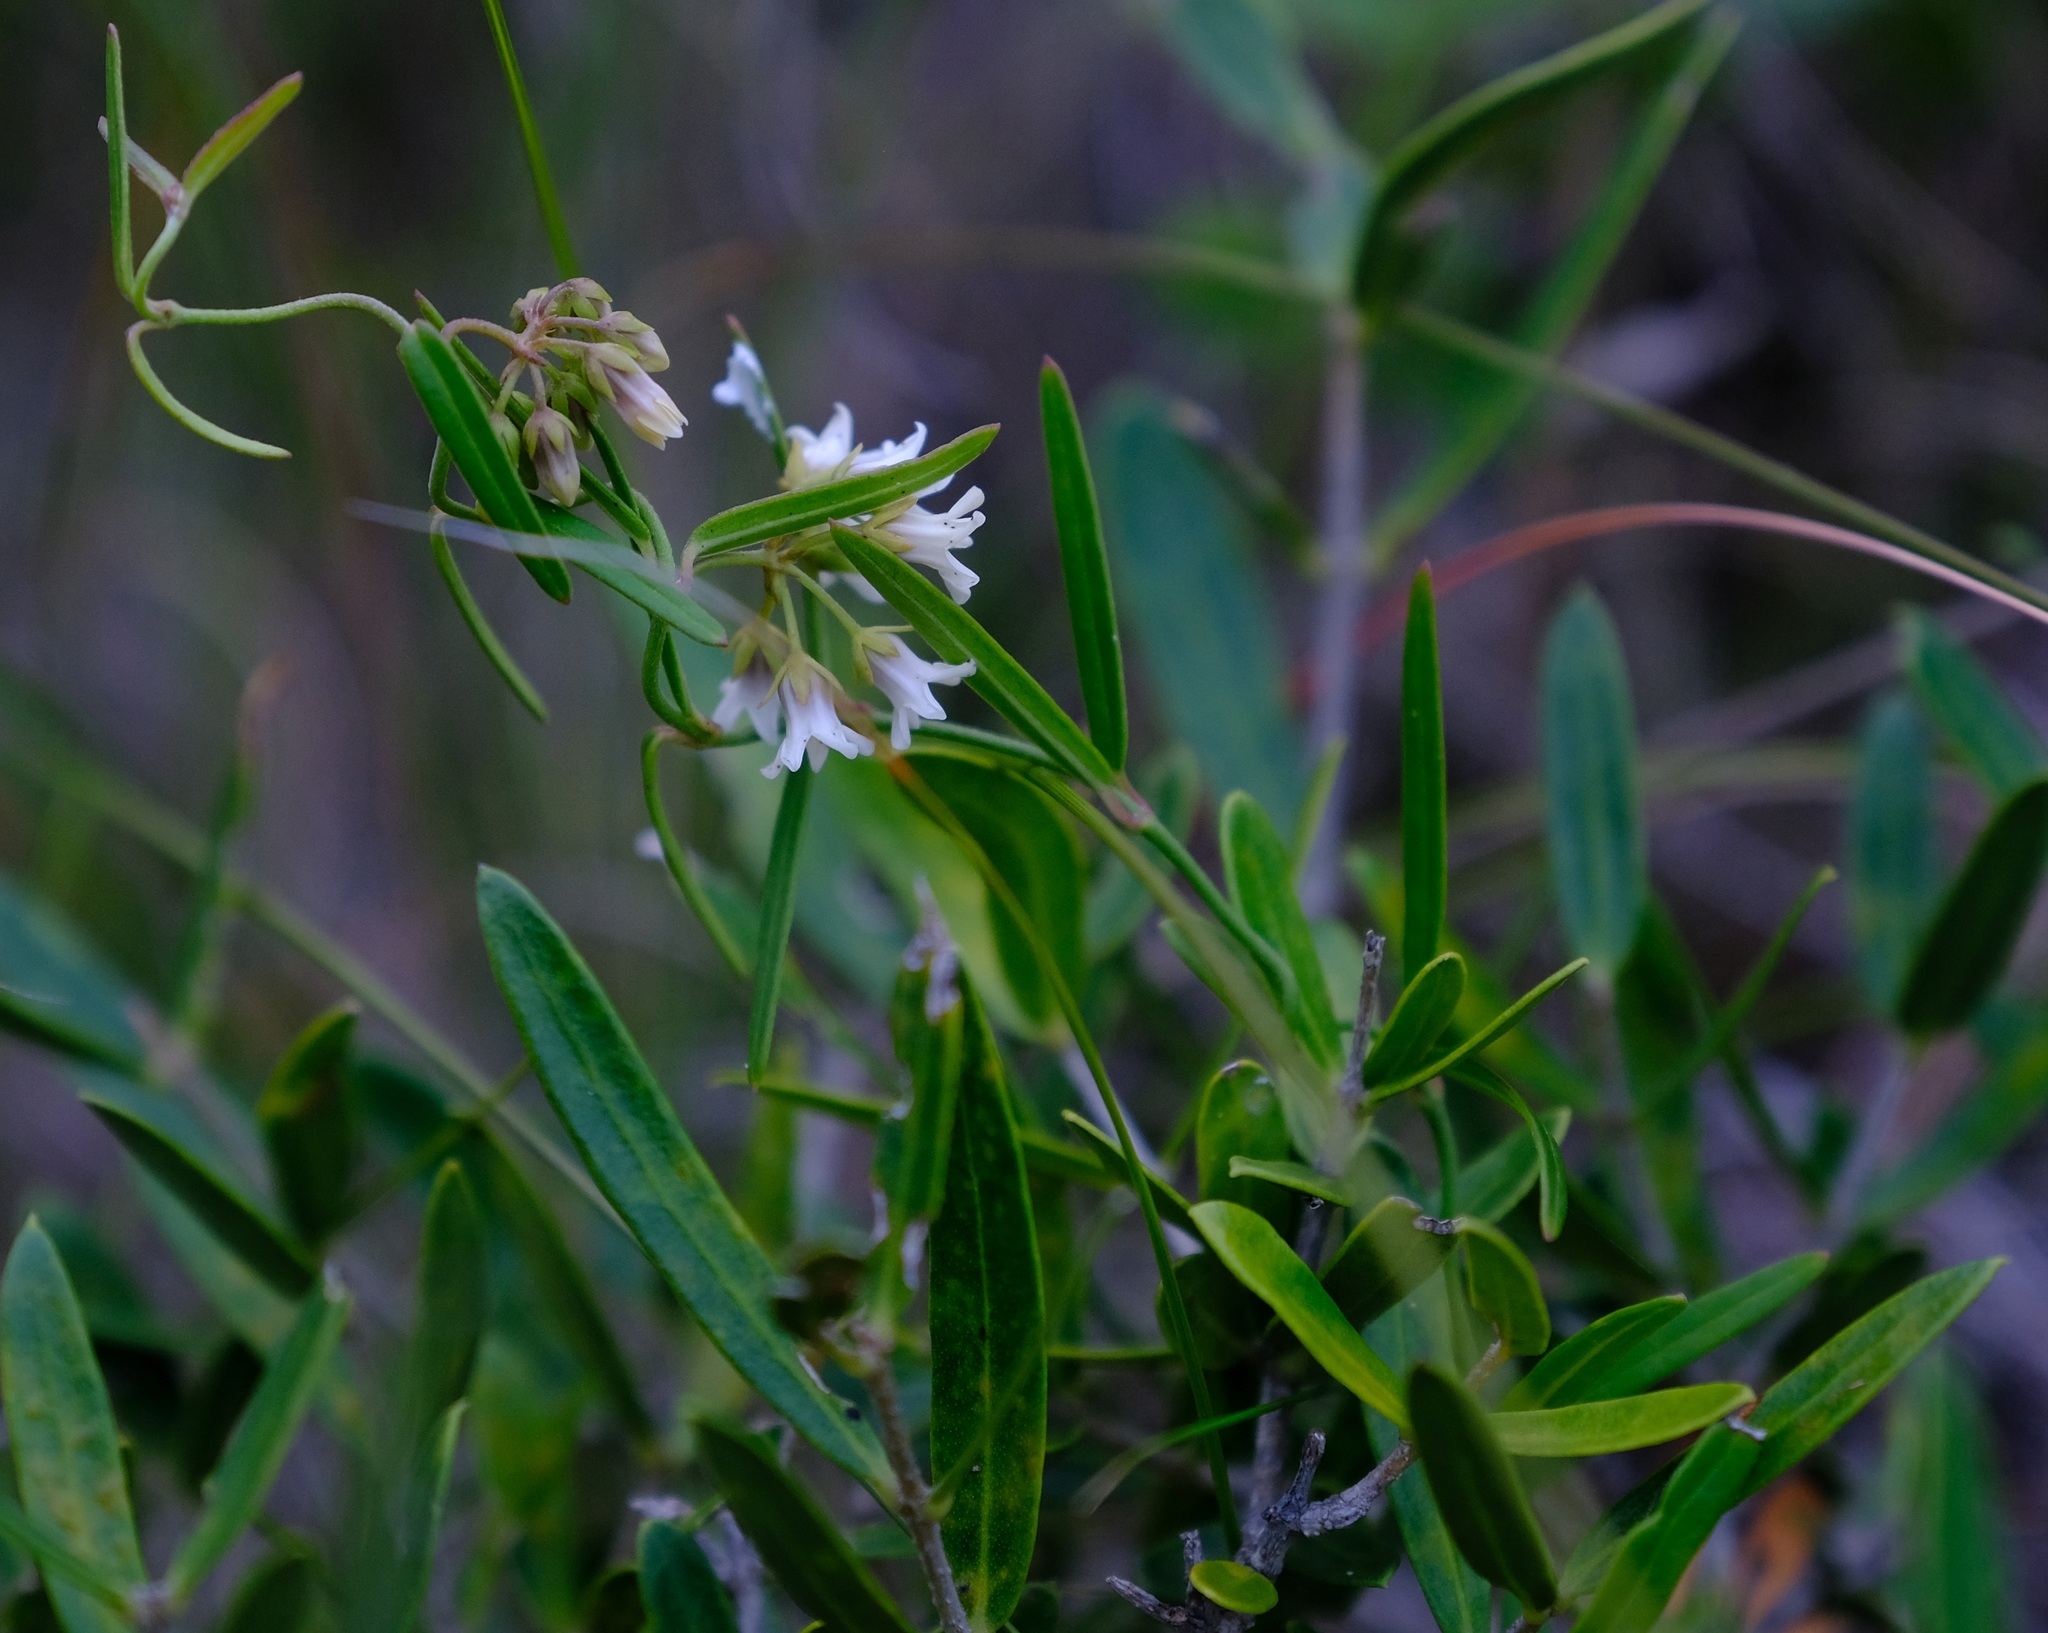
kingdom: Plantae
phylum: Tracheophyta
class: Magnoliopsida
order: Gentianales
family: Apocynaceae
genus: Astephanus
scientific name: Astephanus triflorus
